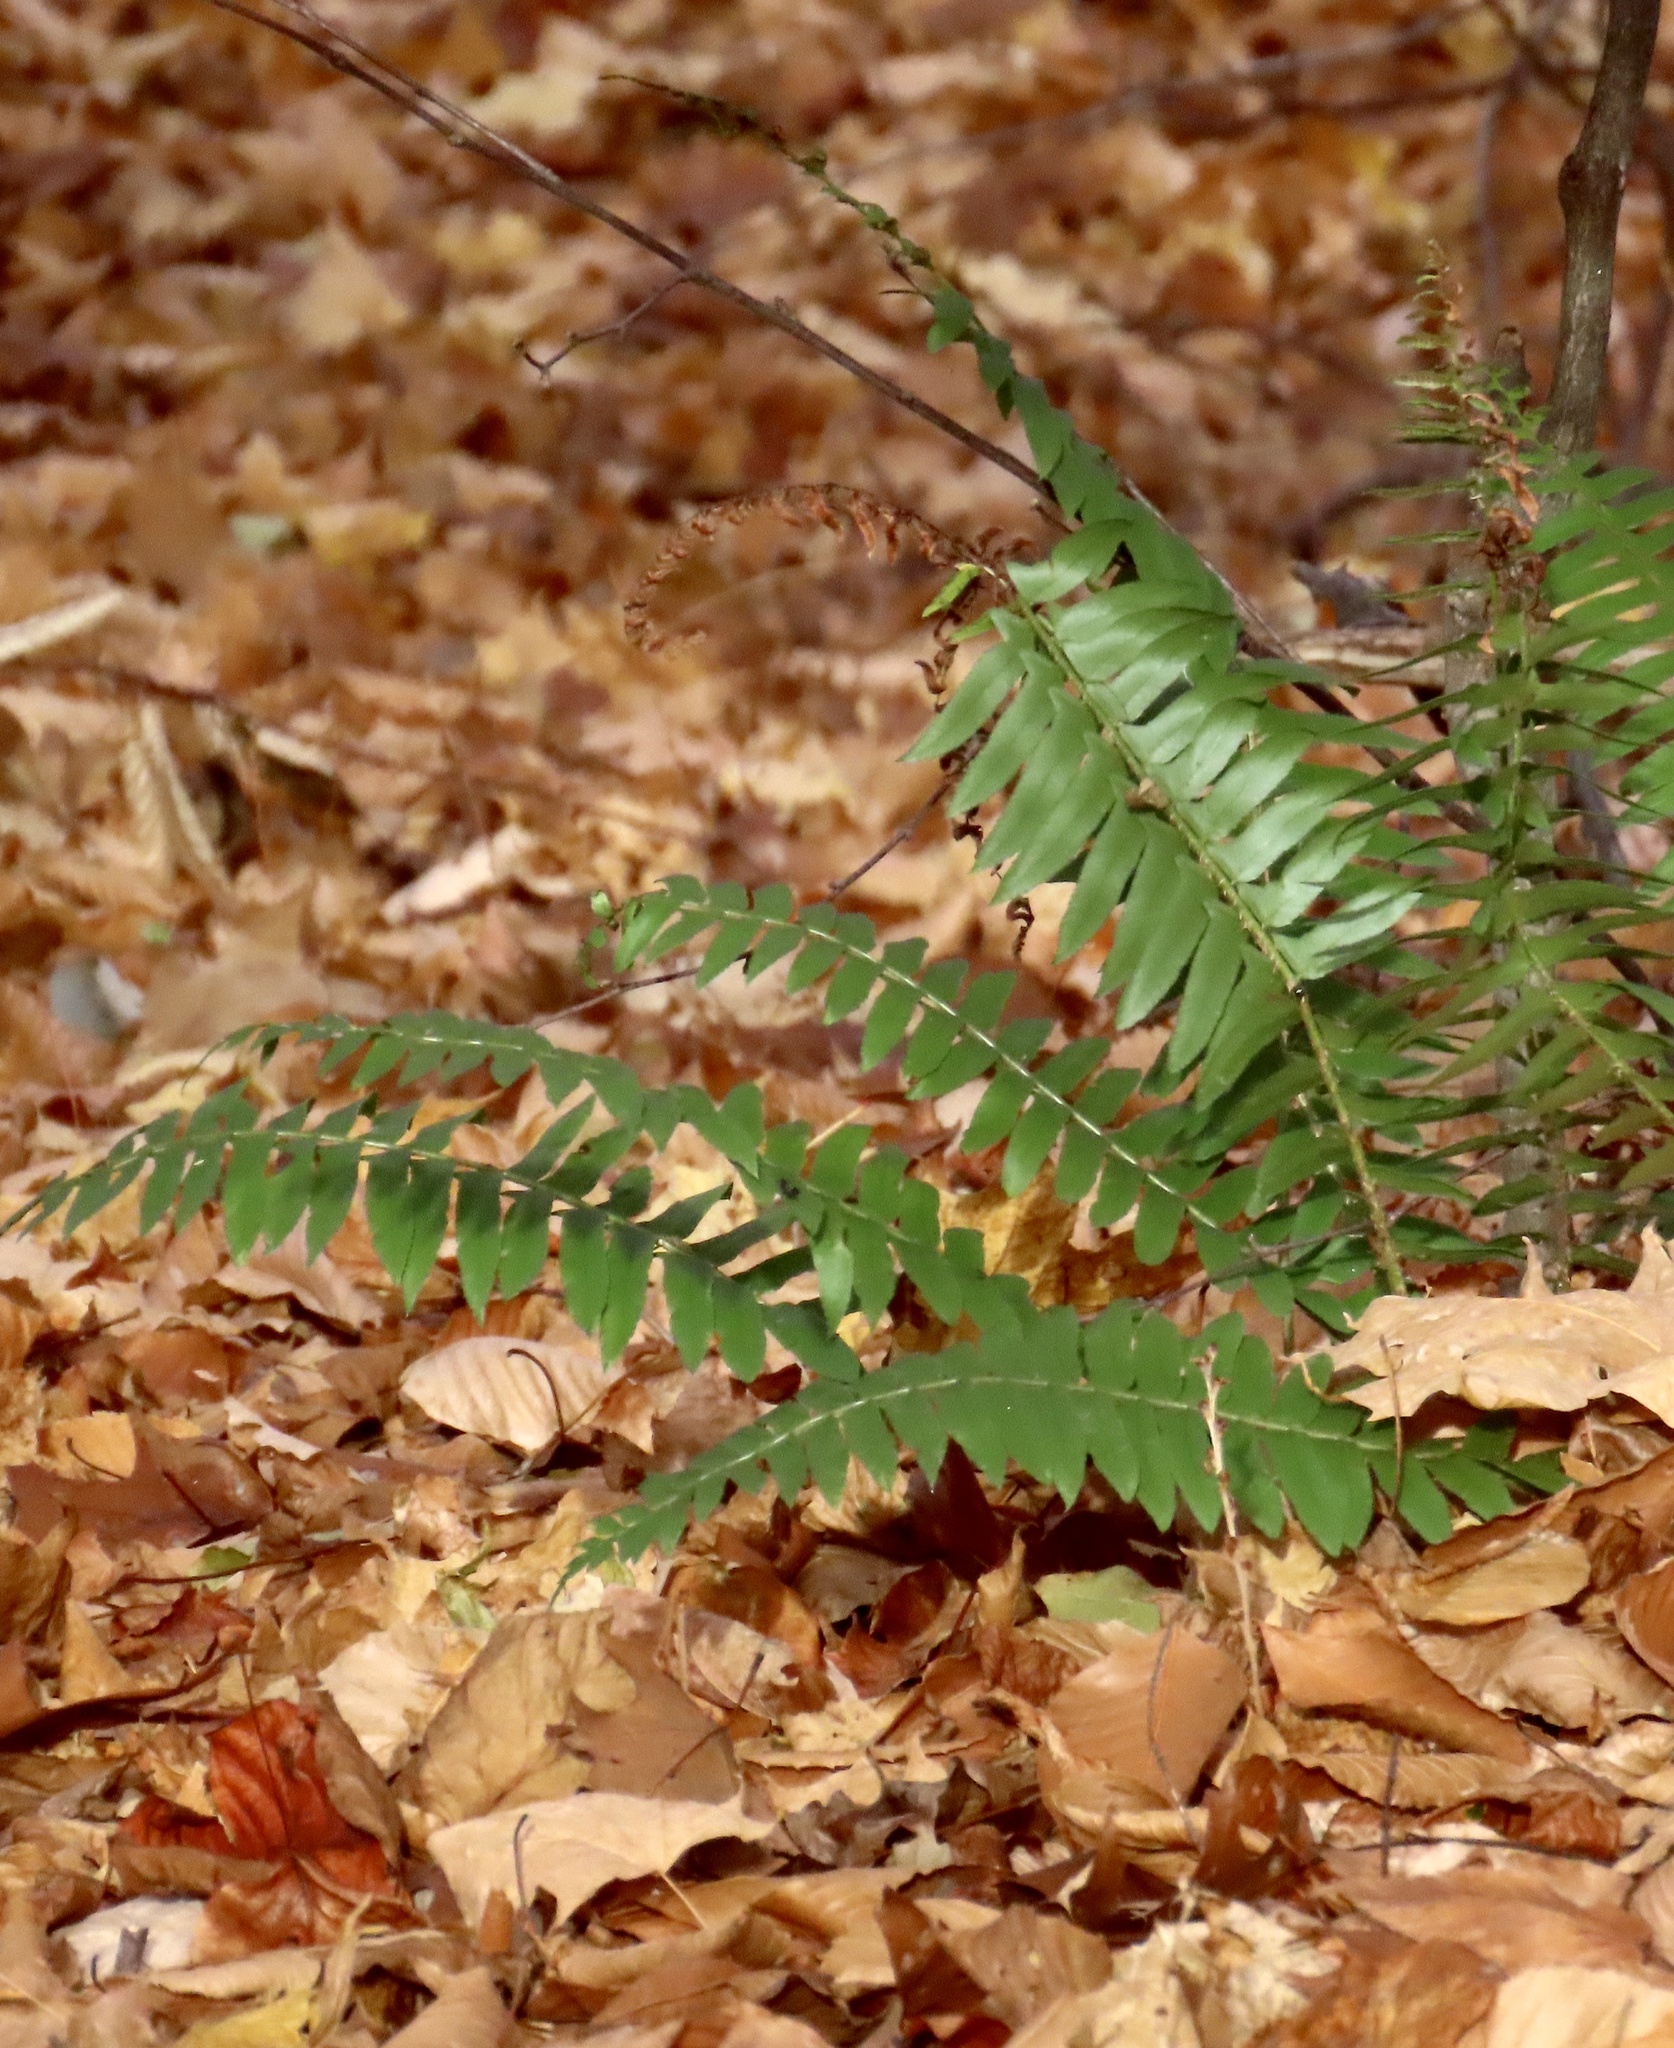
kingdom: Plantae
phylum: Tracheophyta
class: Polypodiopsida
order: Polypodiales
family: Dryopteridaceae
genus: Polystichum
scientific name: Polystichum acrostichoides
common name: Christmas fern
